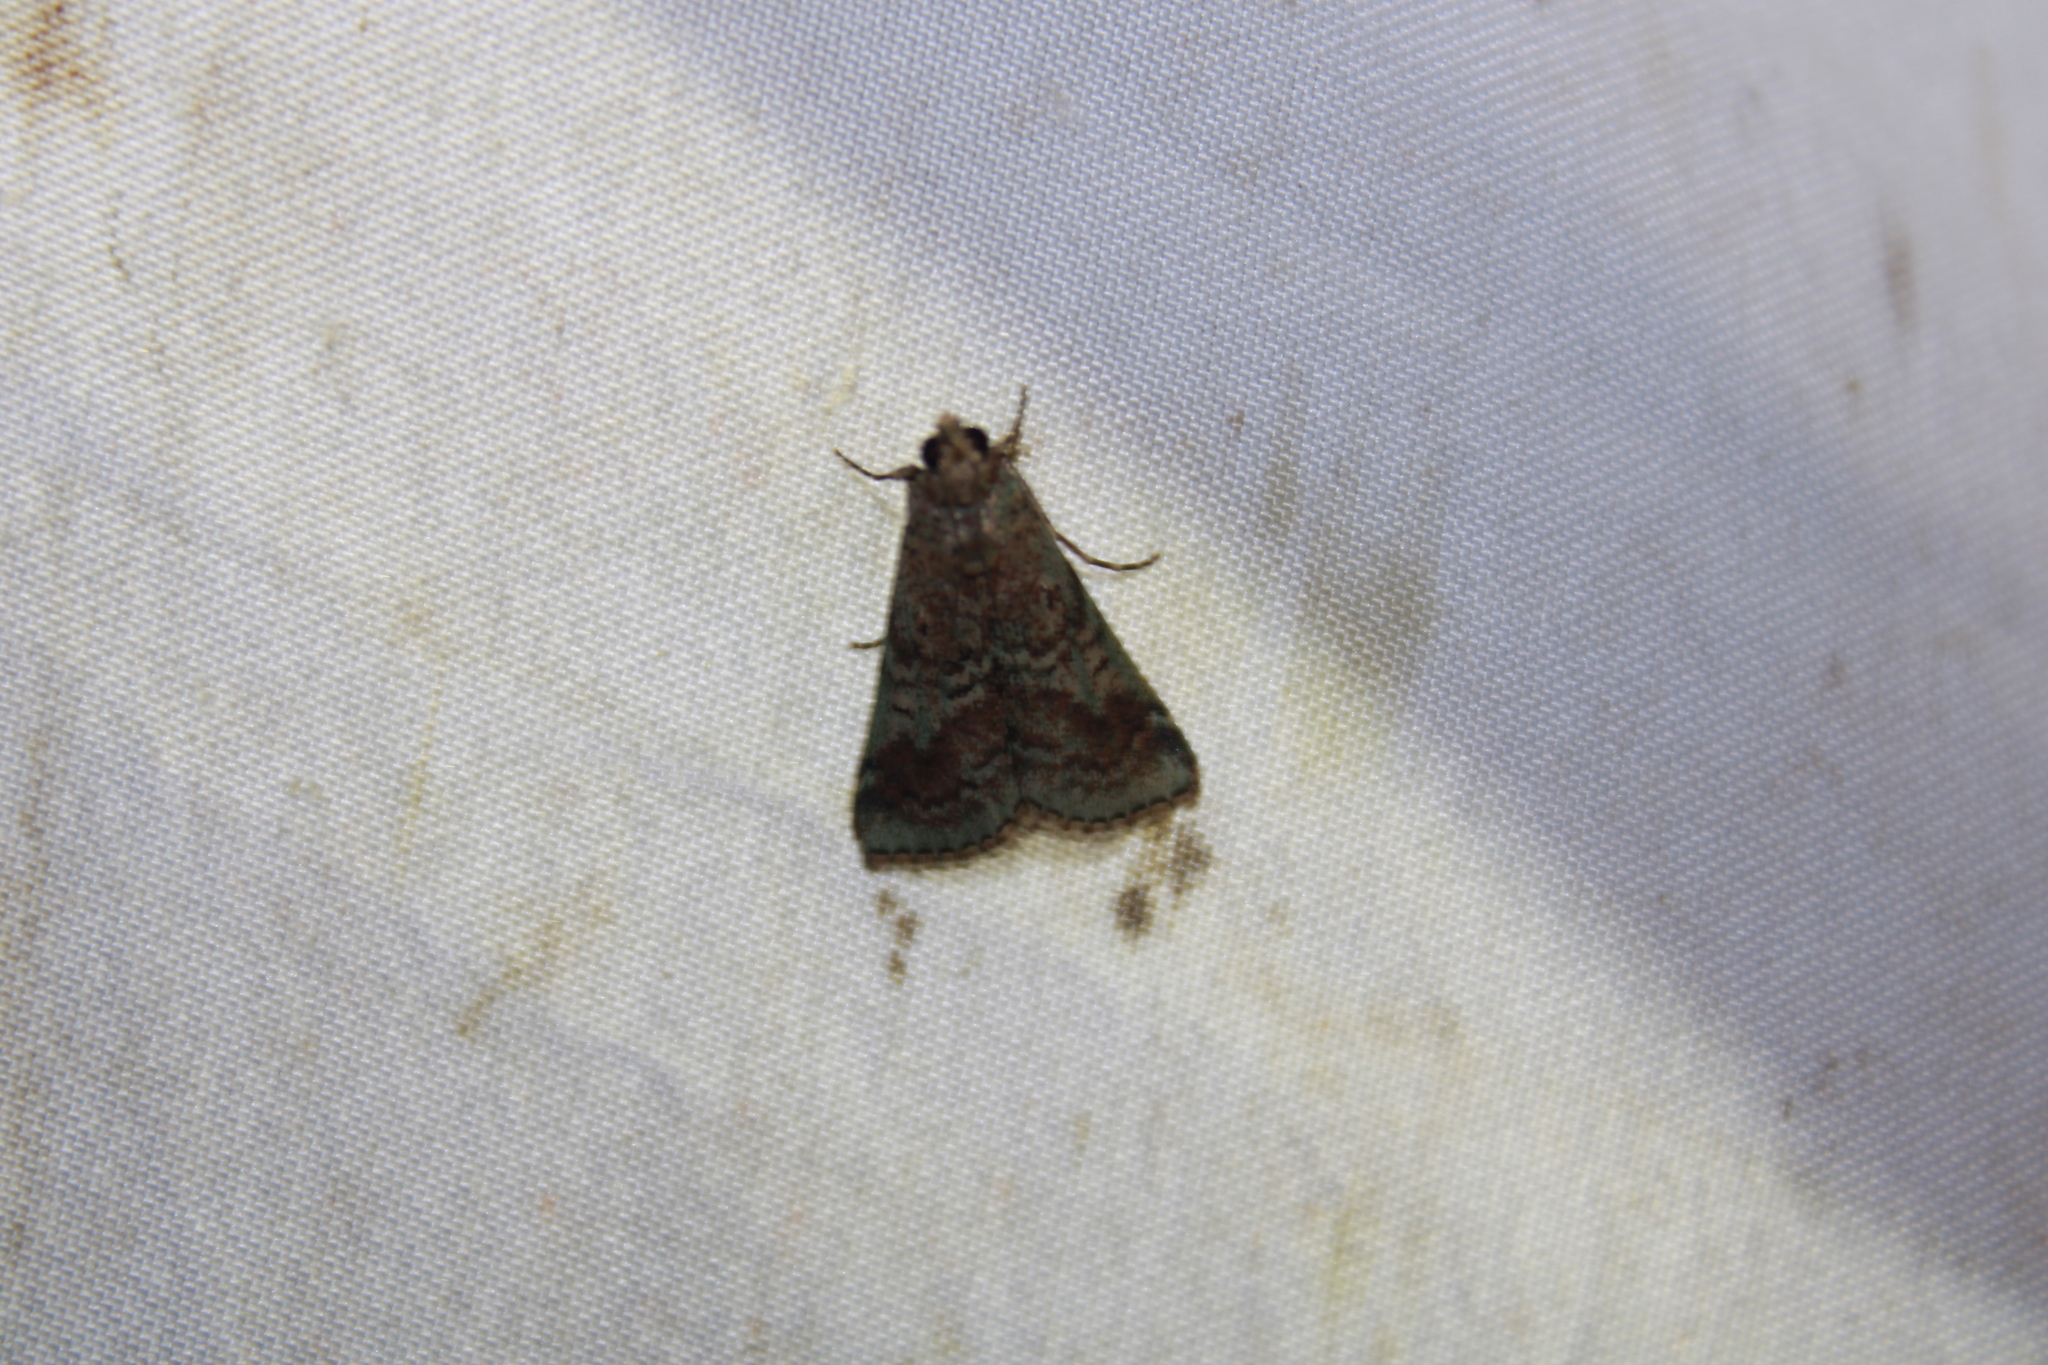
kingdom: Animalia
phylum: Arthropoda
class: Insecta
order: Lepidoptera
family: Pyralidae
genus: Deuterollyta
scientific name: Deuterollyta majuscula
